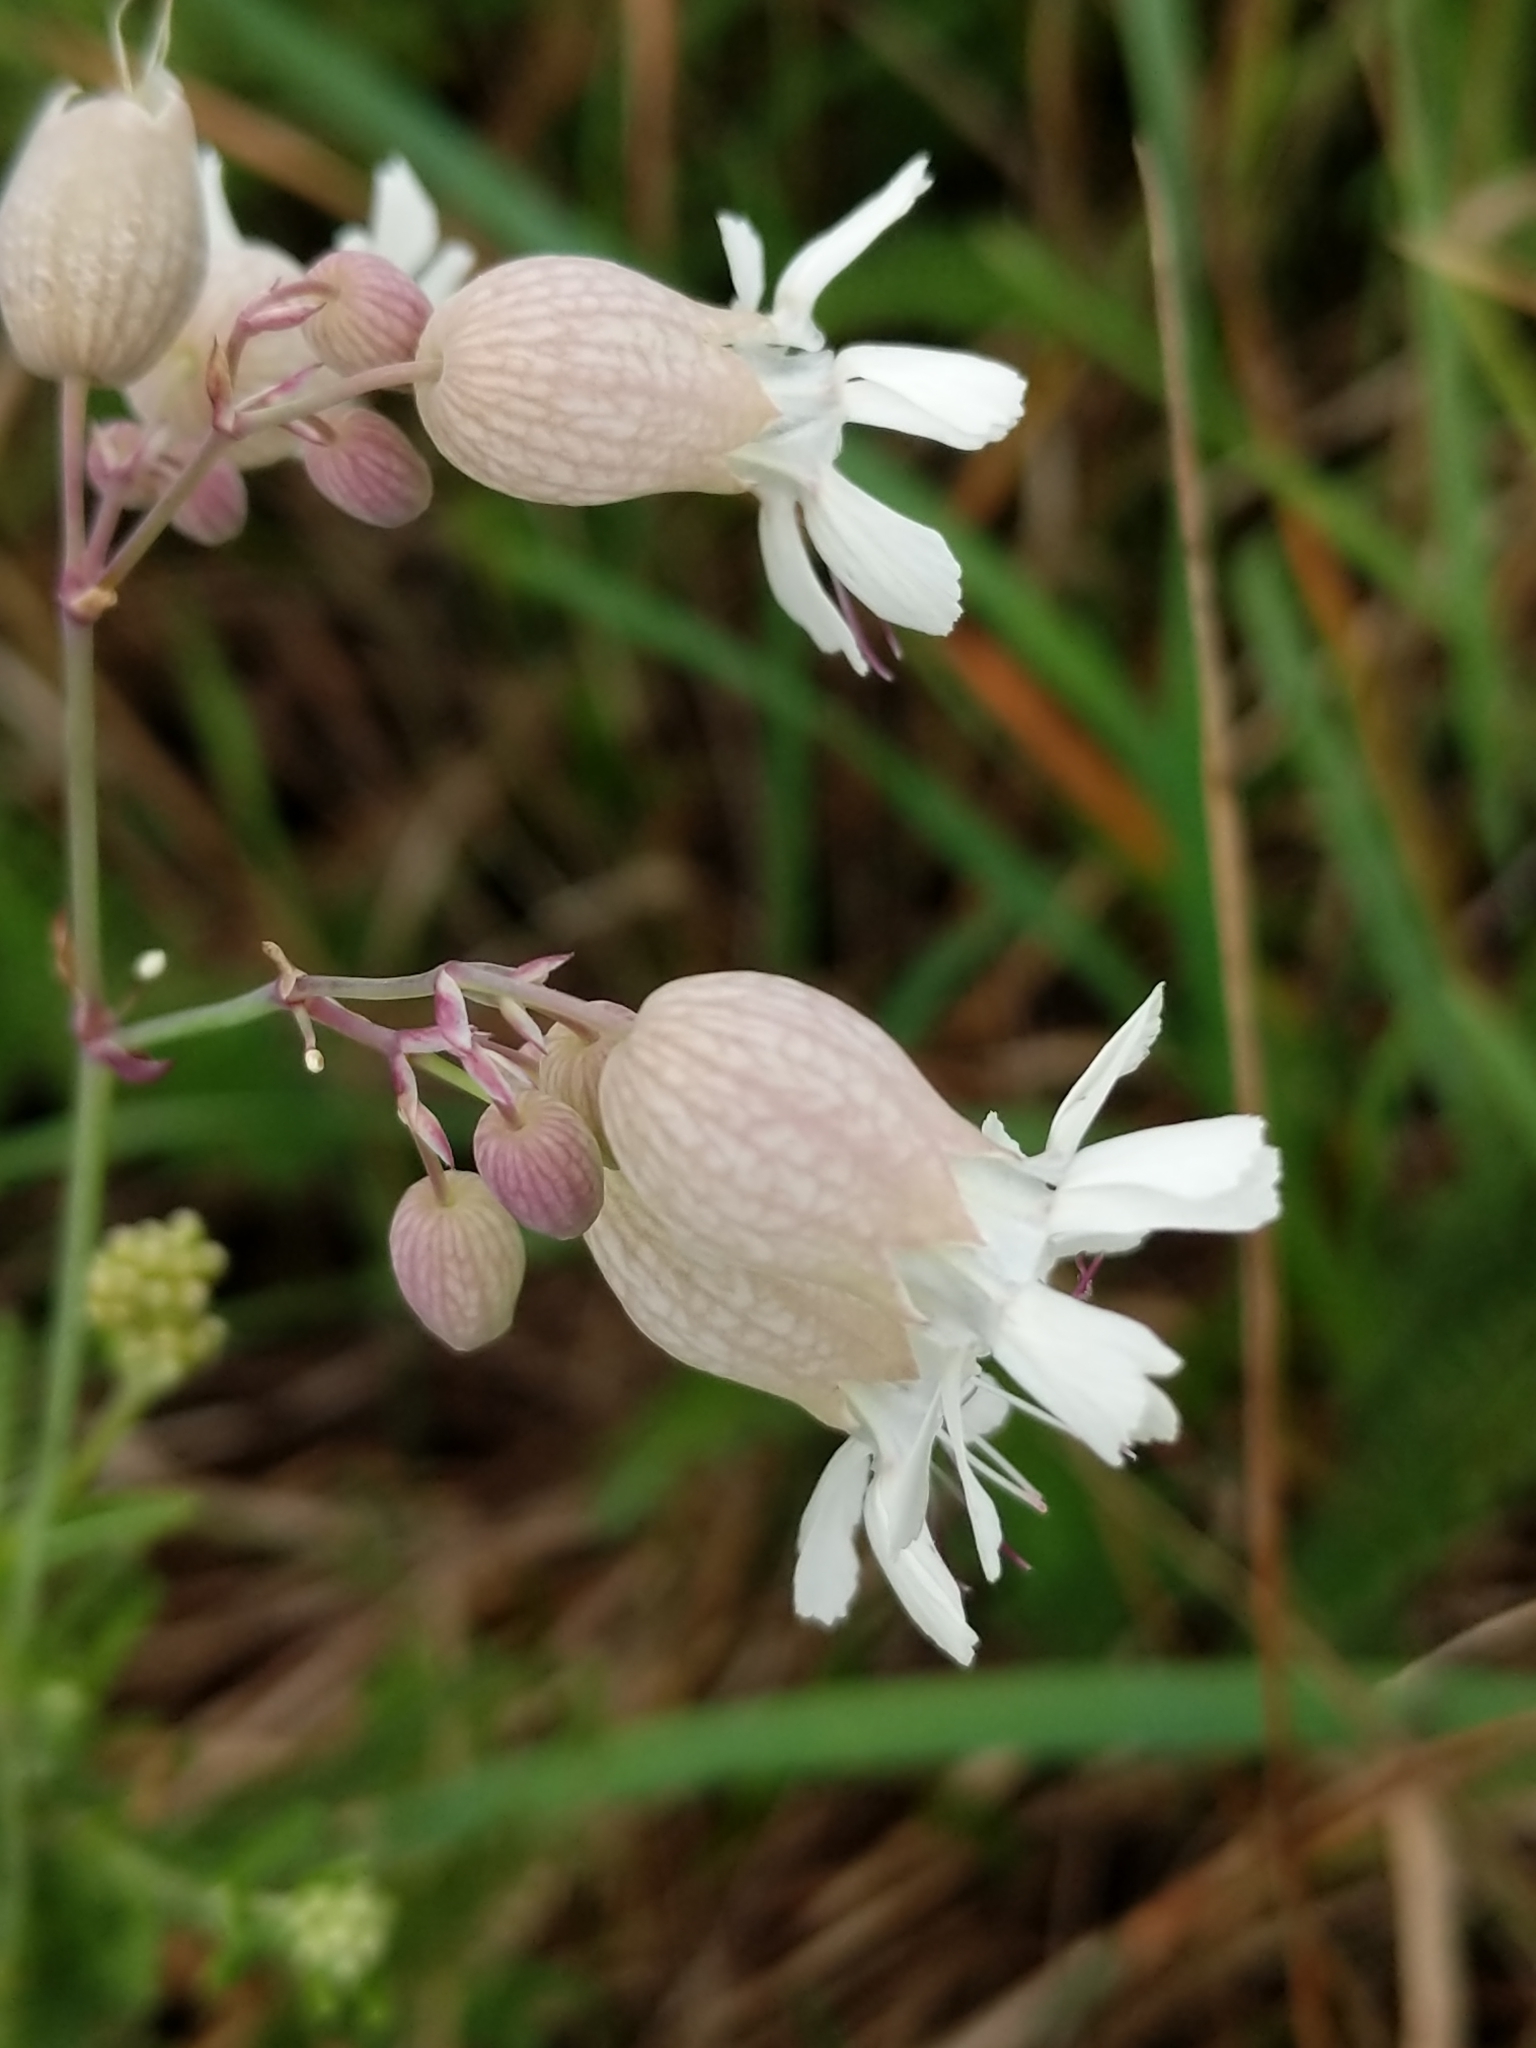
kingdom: Plantae
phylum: Tracheophyta
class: Magnoliopsida
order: Caryophyllales
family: Caryophyllaceae
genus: Silene
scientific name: Silene vulgaris
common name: Bladder campion
